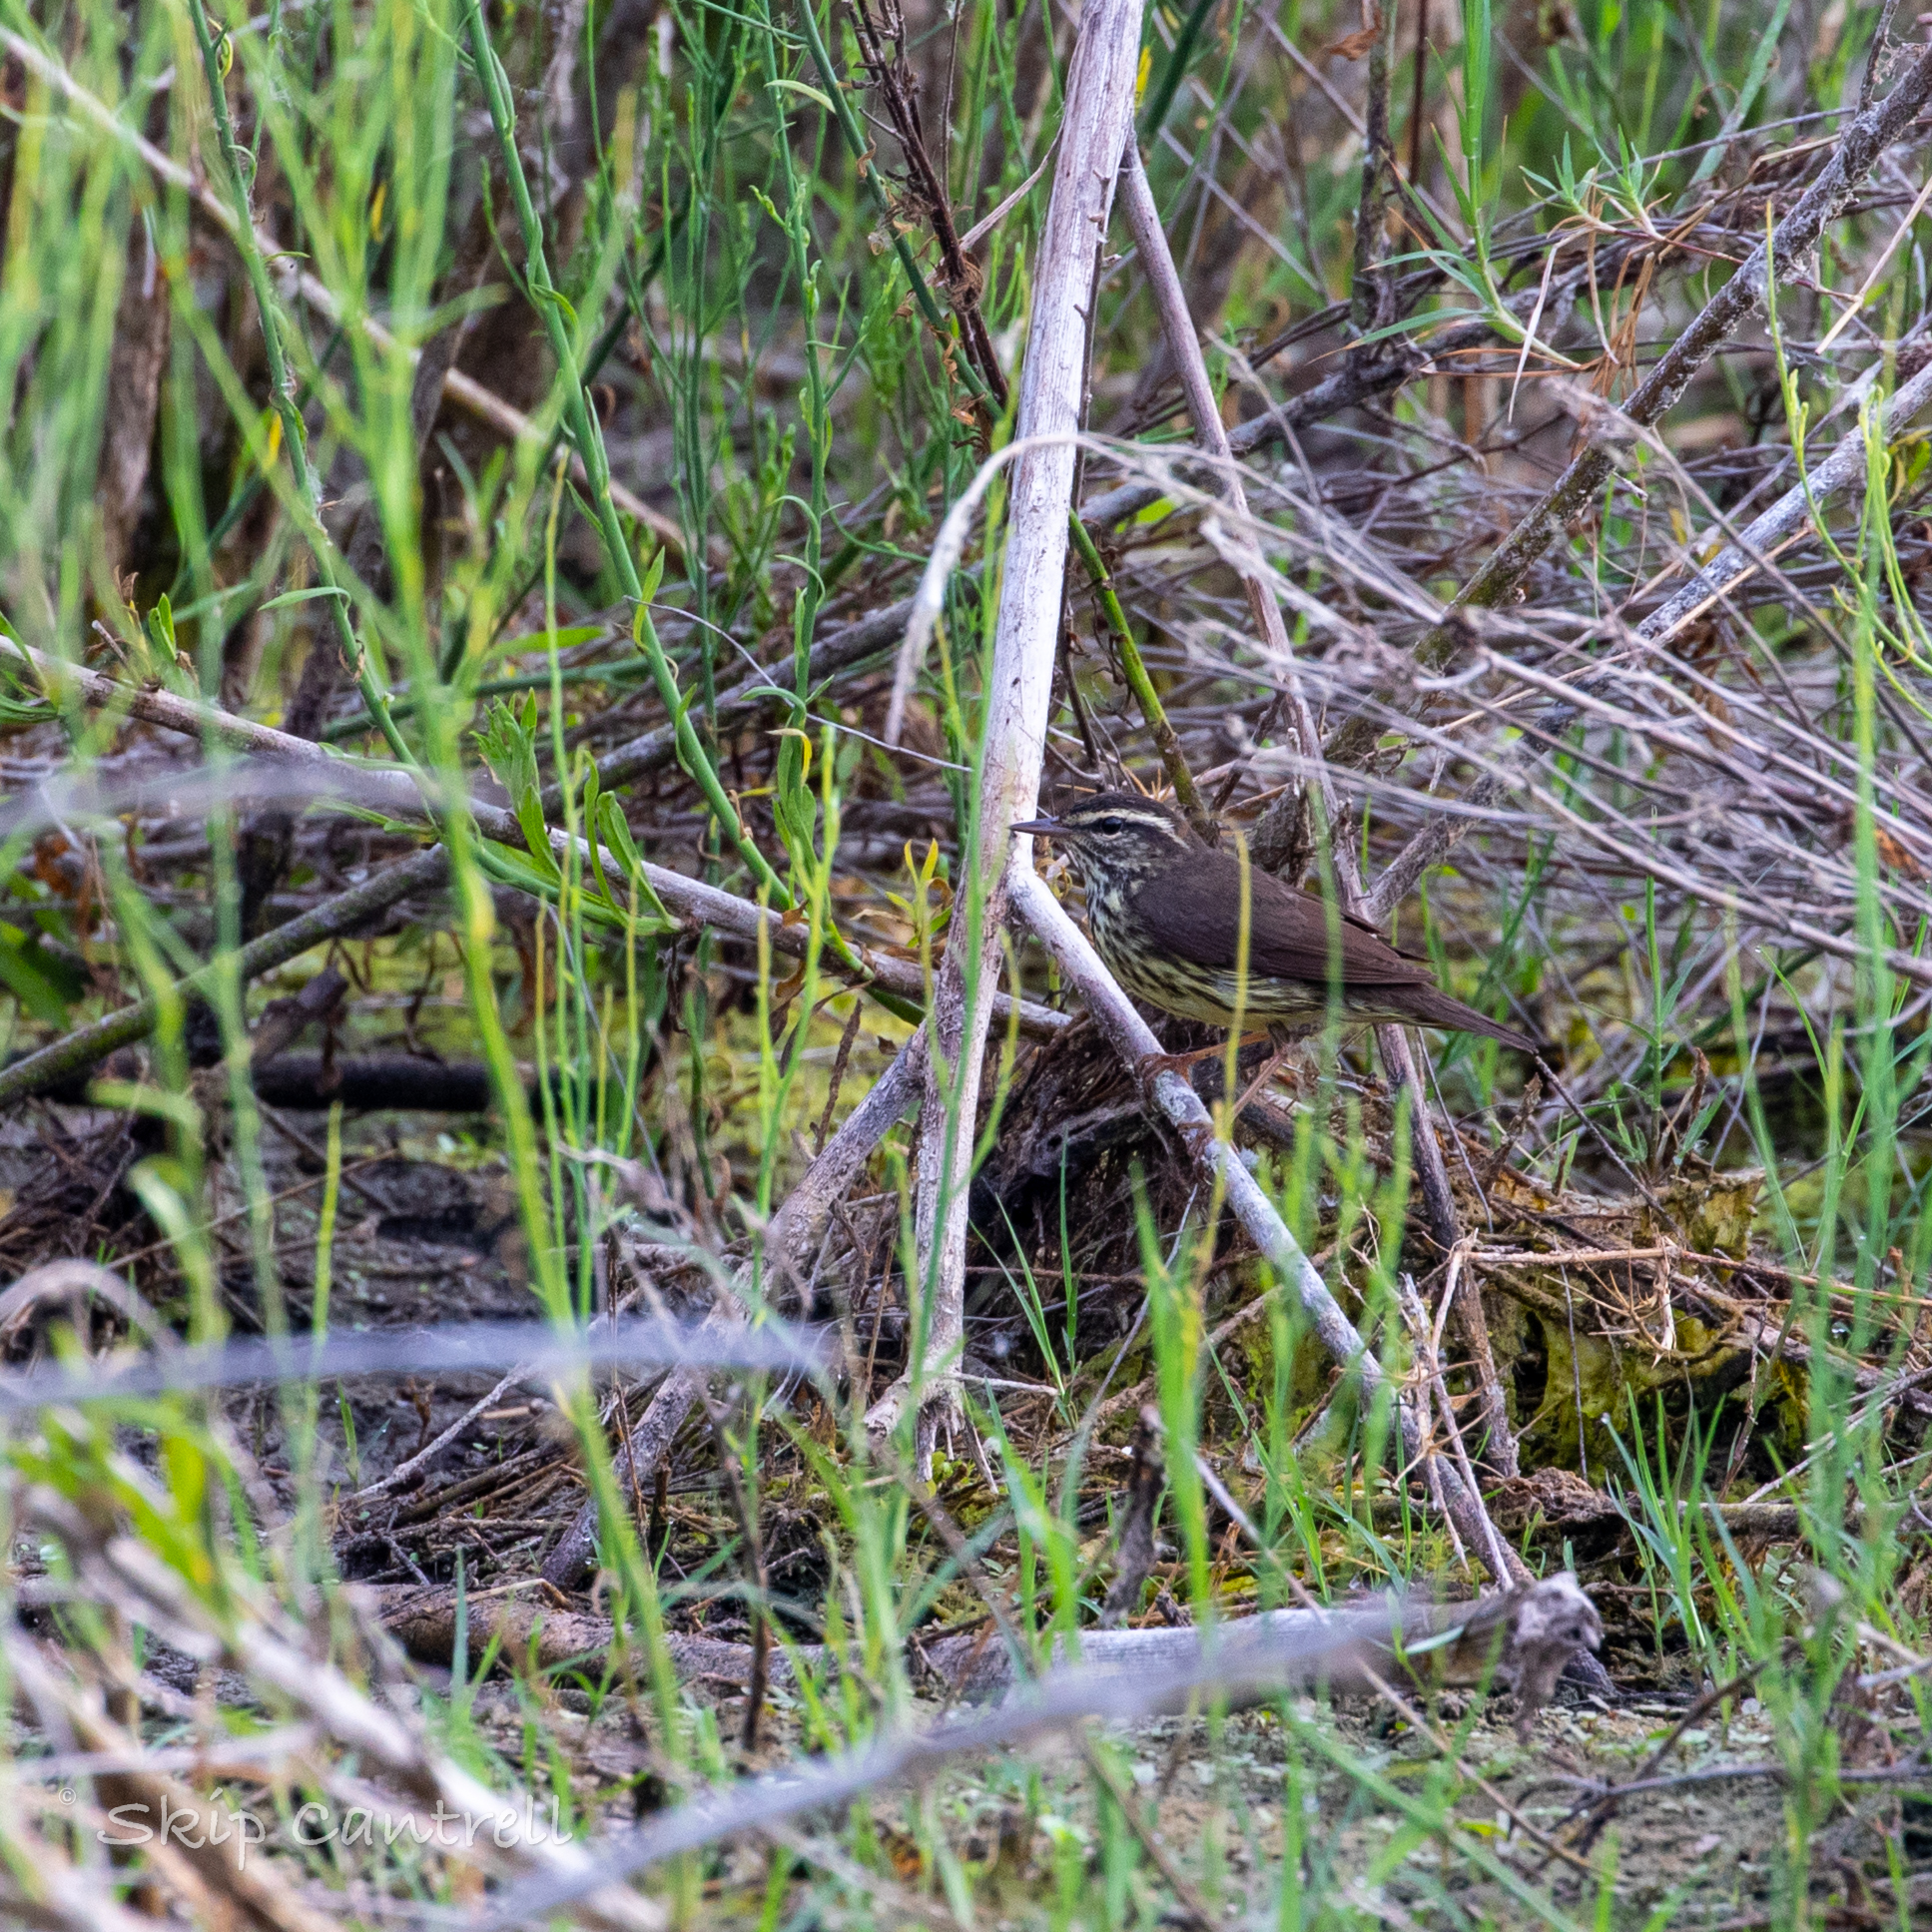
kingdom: Animalia
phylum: Chordata
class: Aves
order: Passeriformes
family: Parulidae
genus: Parkesia
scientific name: Parkesia noveboracensis
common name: Northern waterthrush
